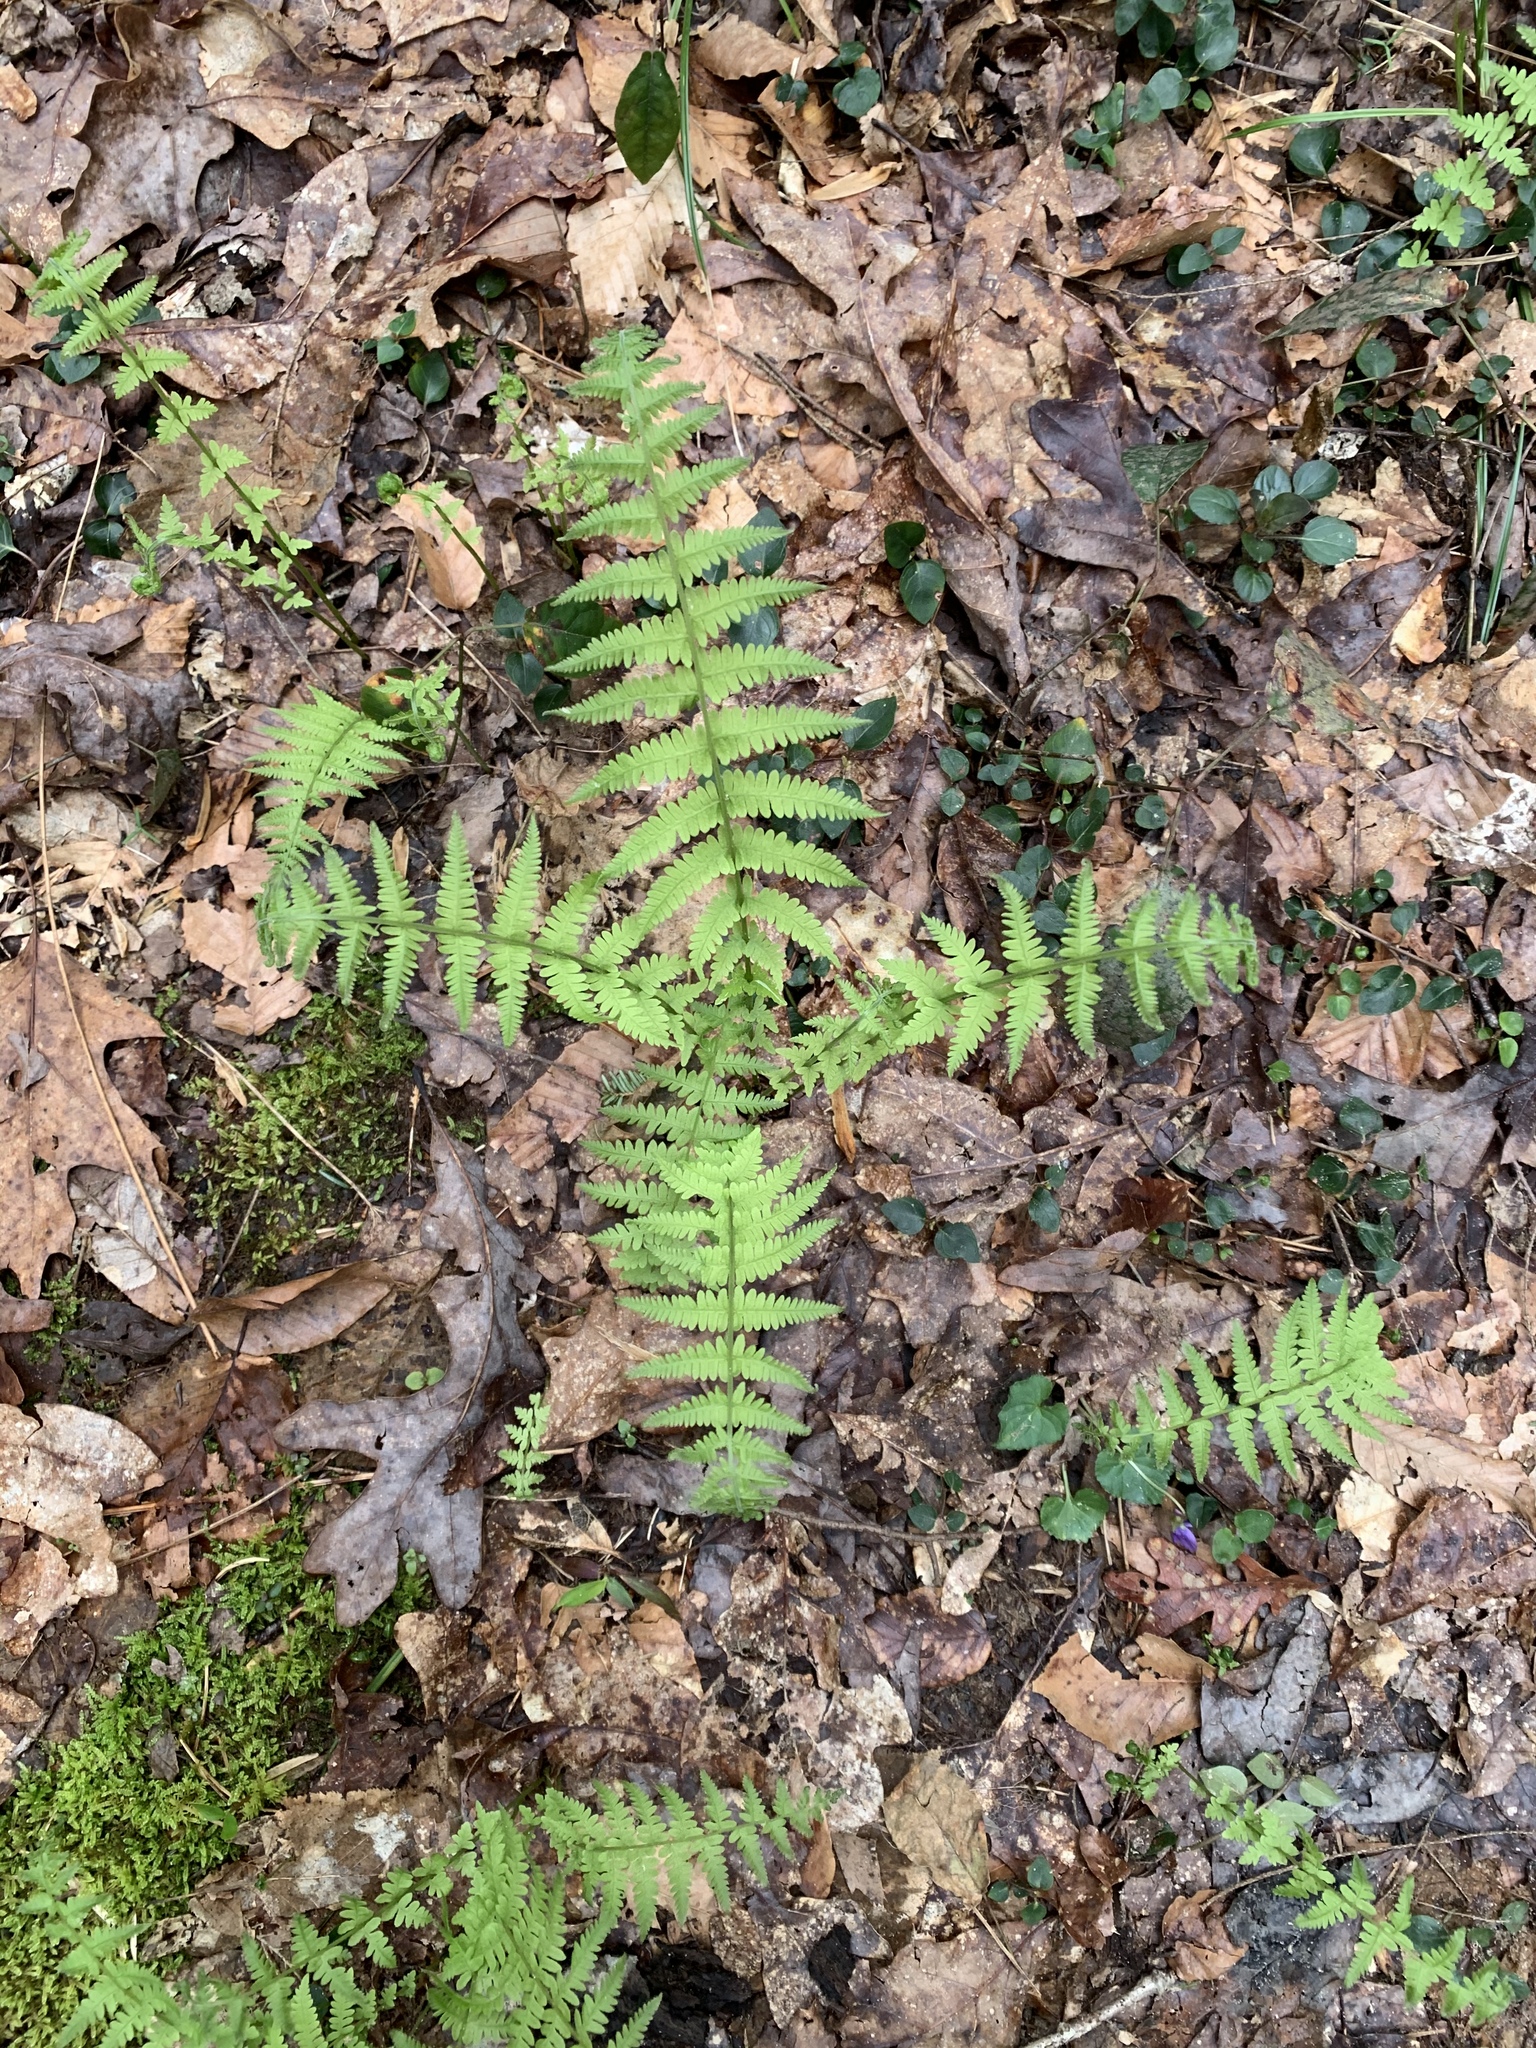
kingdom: Plantae
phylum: Tracheophyta
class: Polypodiopsida
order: Polypodiales
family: Thelypteridaceae
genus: Amauropelta
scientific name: Amauropelta noveboracensis
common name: New york fern
